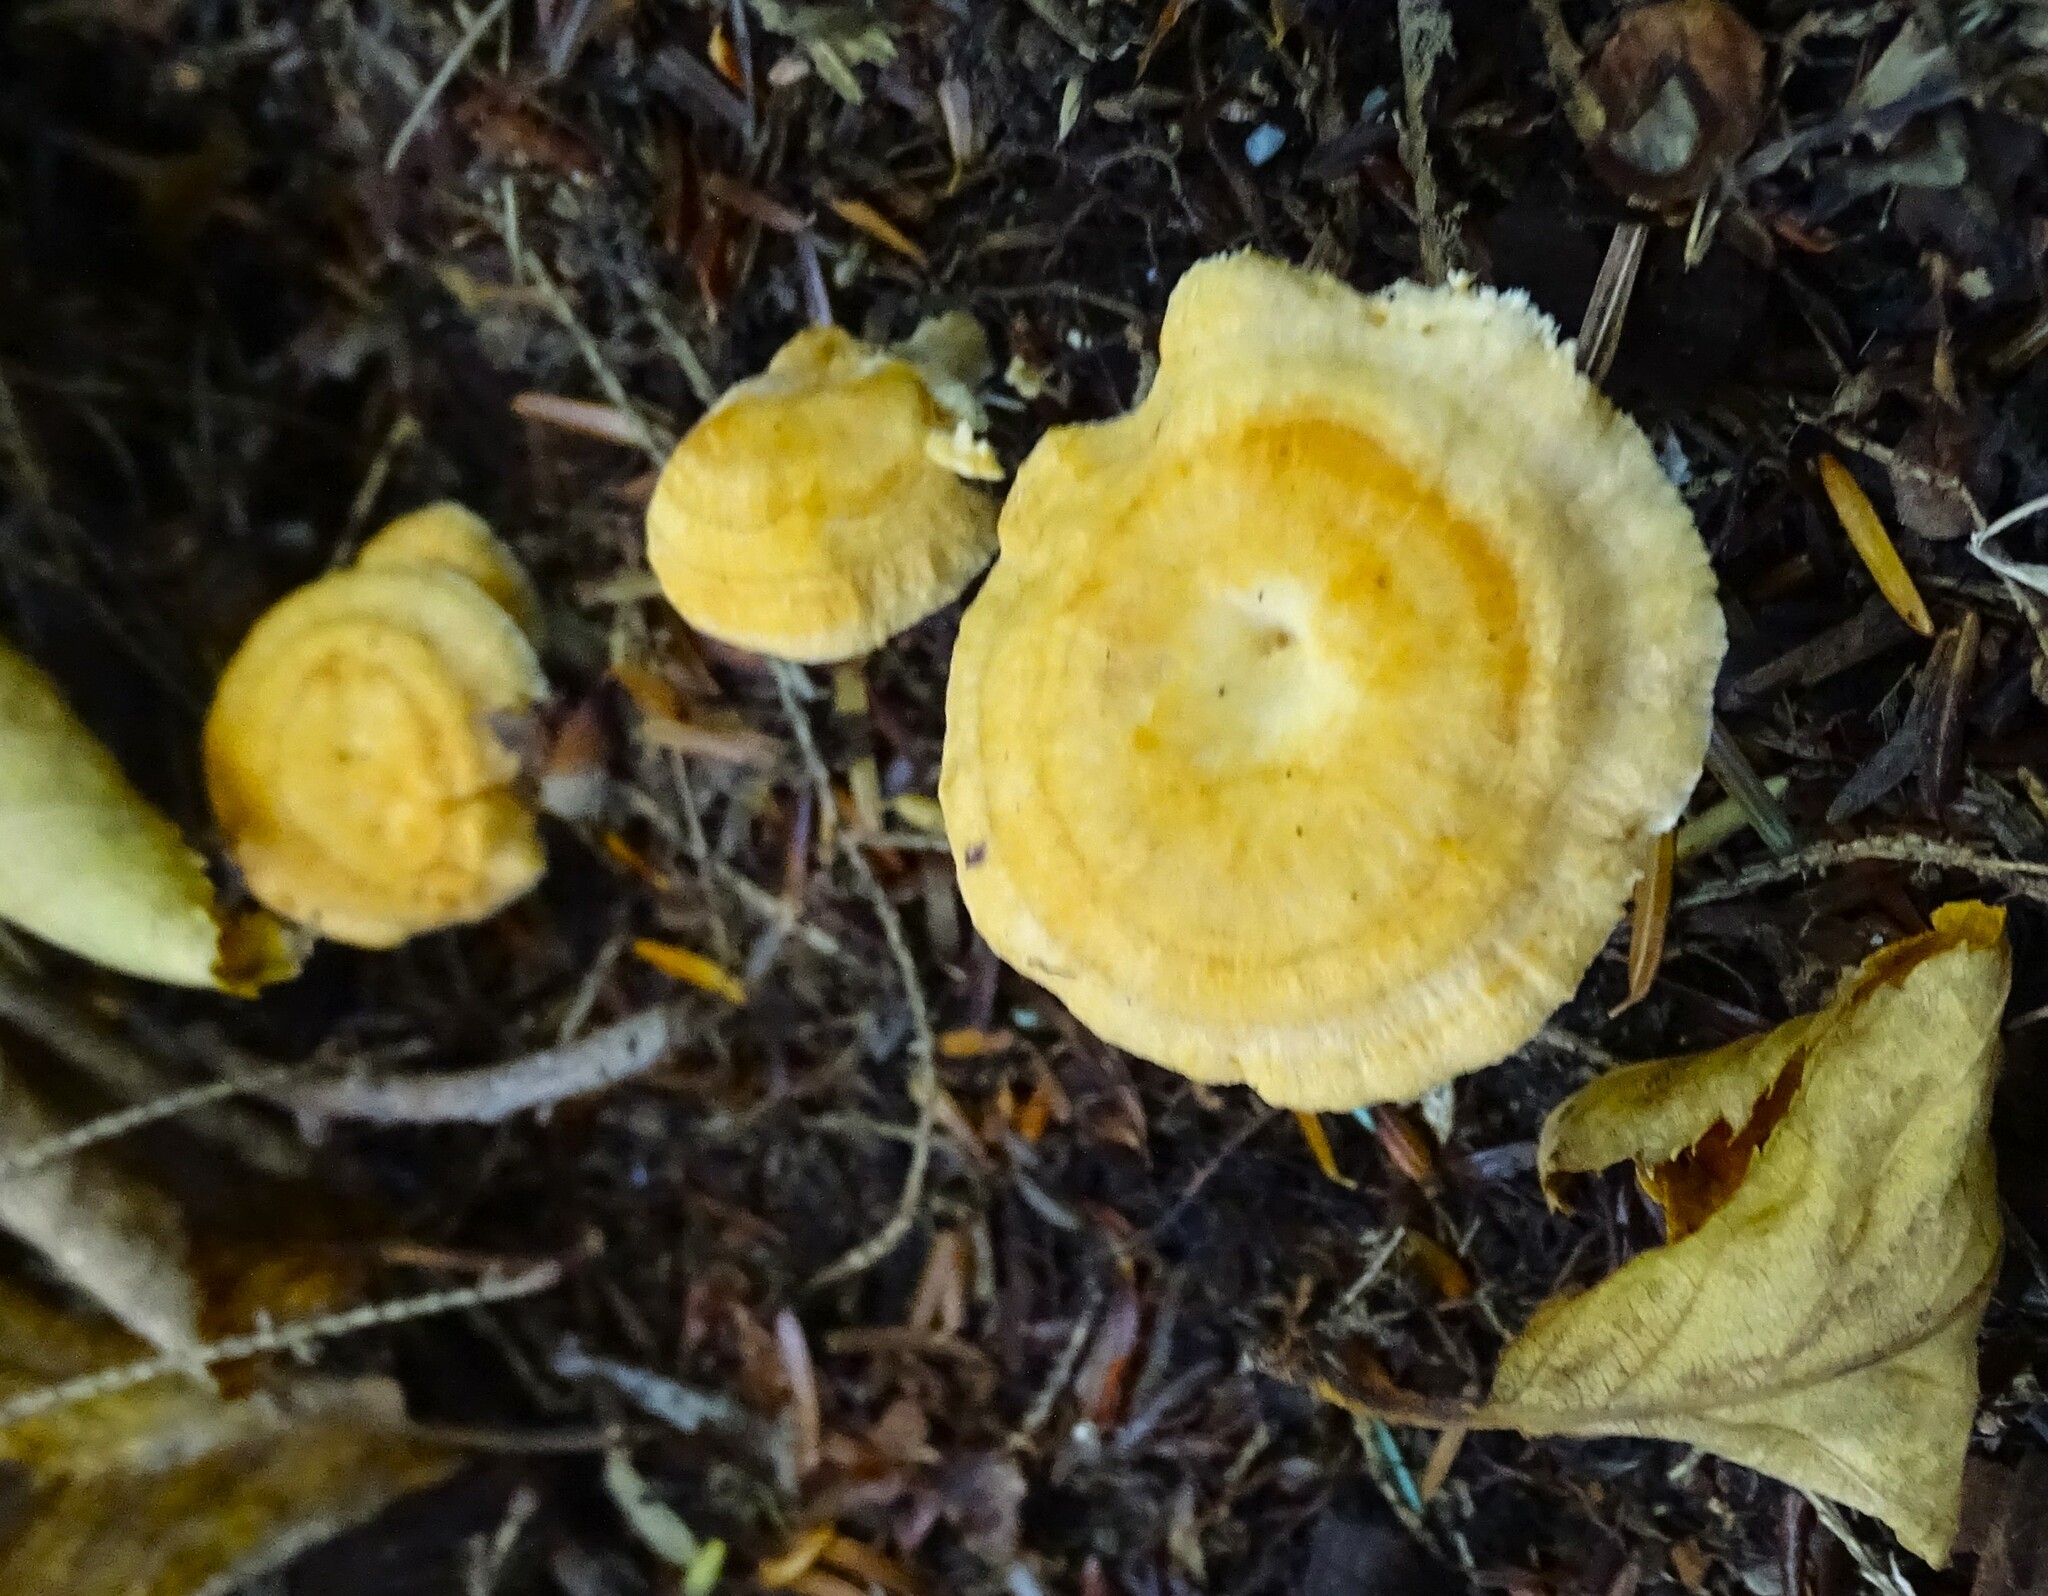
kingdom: Fungi
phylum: Basidiomycota
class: Agaricomycetes
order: Cantharellales
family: Hydnaceae
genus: Hydnum
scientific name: Hydnum umbilicatum
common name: Umbilicate hedgehog
